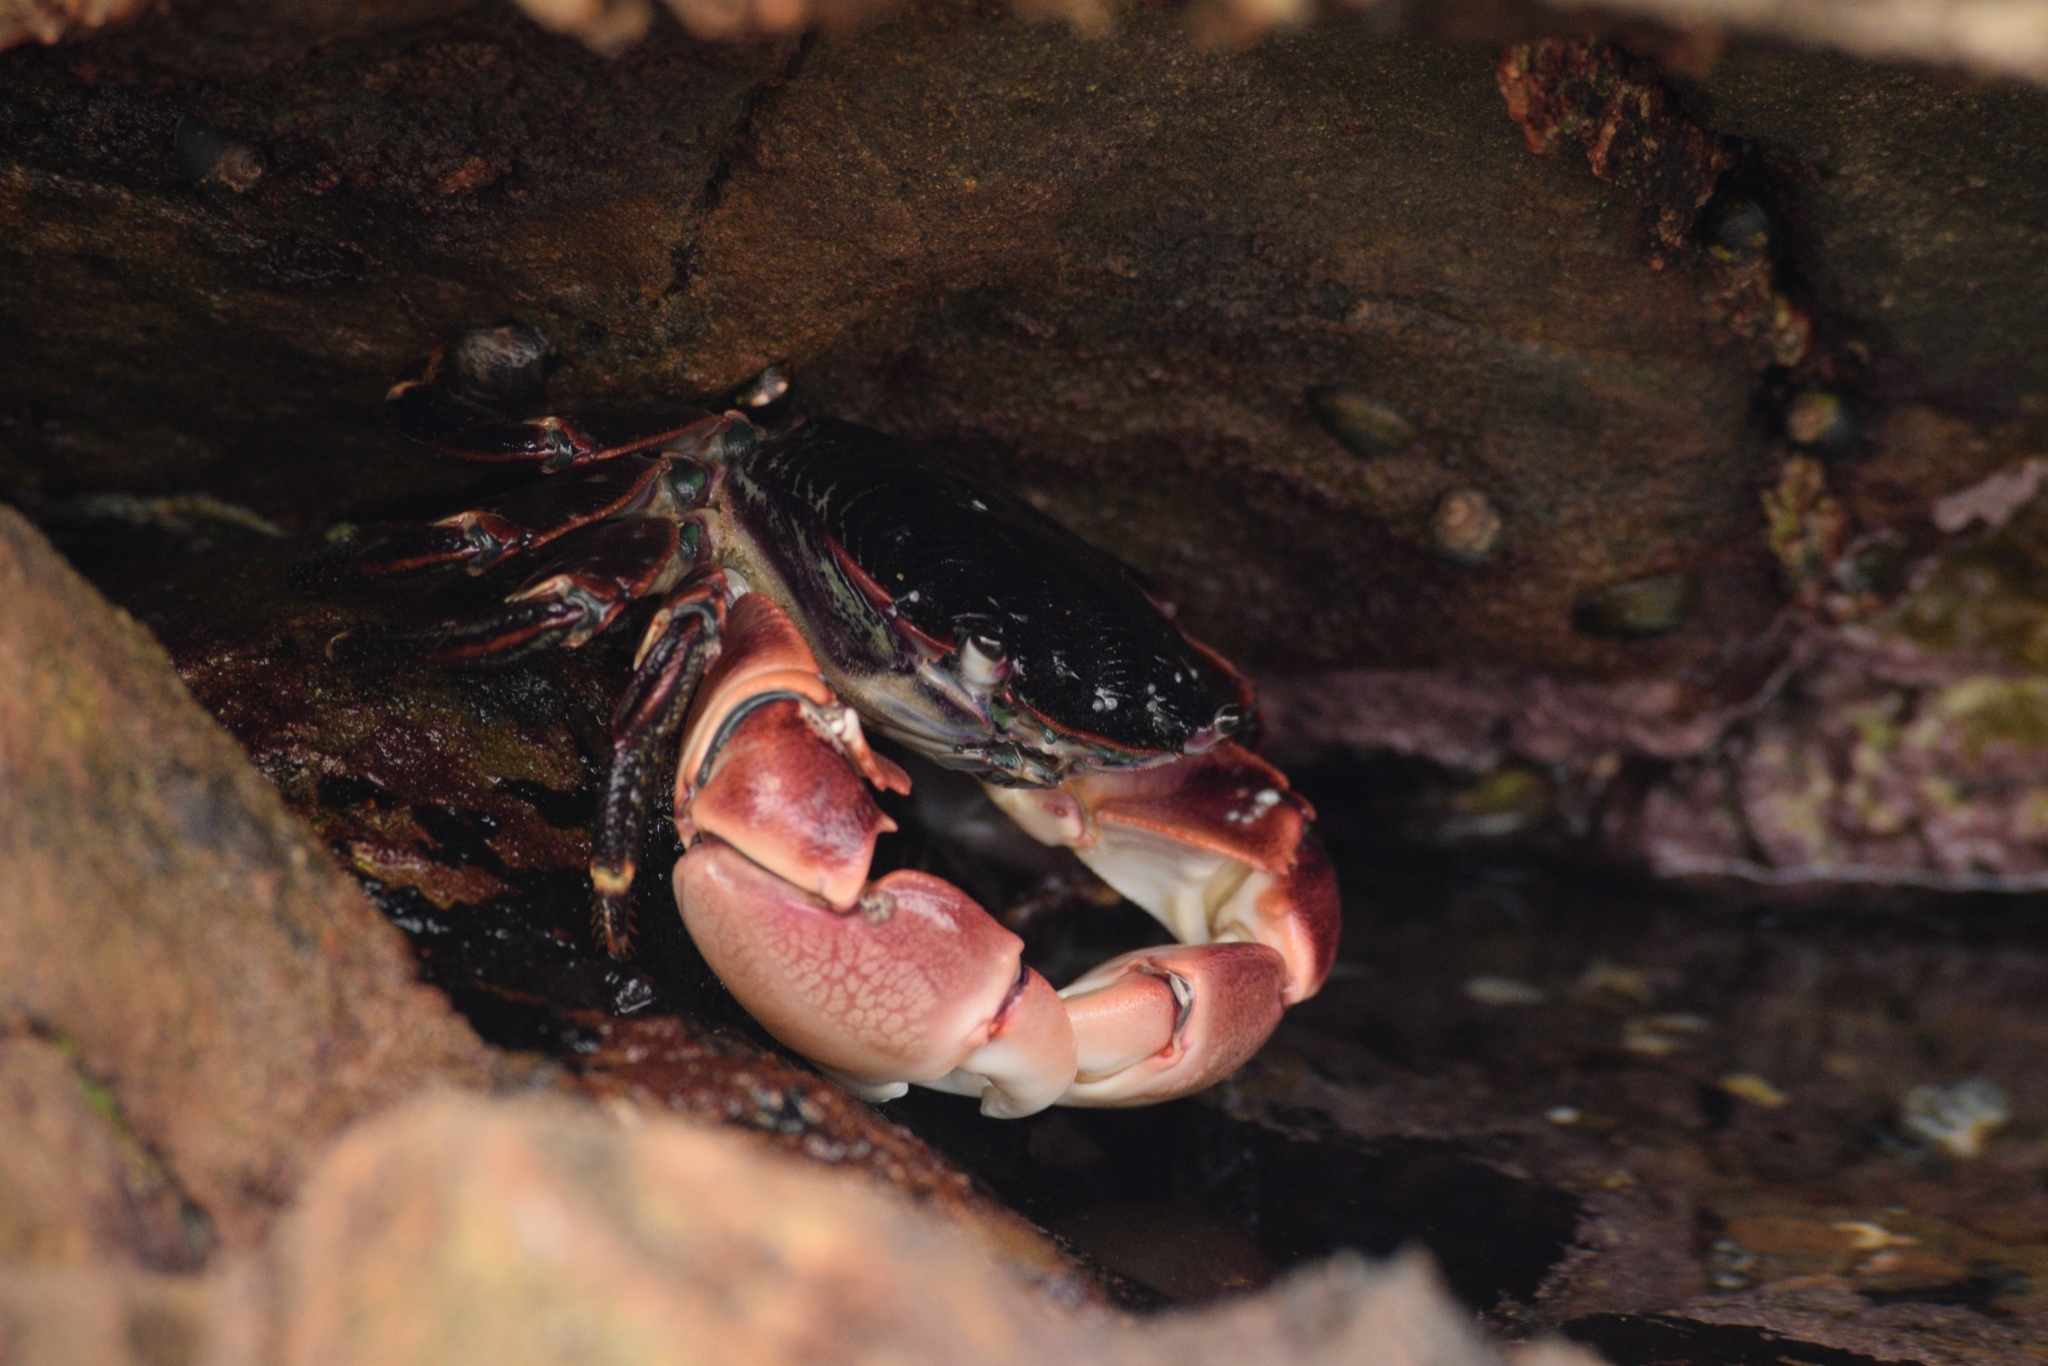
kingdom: Animalia
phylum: Arthropoda
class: Malacostraca
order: Decapoda
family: Grapsidae
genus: Pachygrapsus
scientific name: Pachygrapsus crassipes
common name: Striped shore crab
